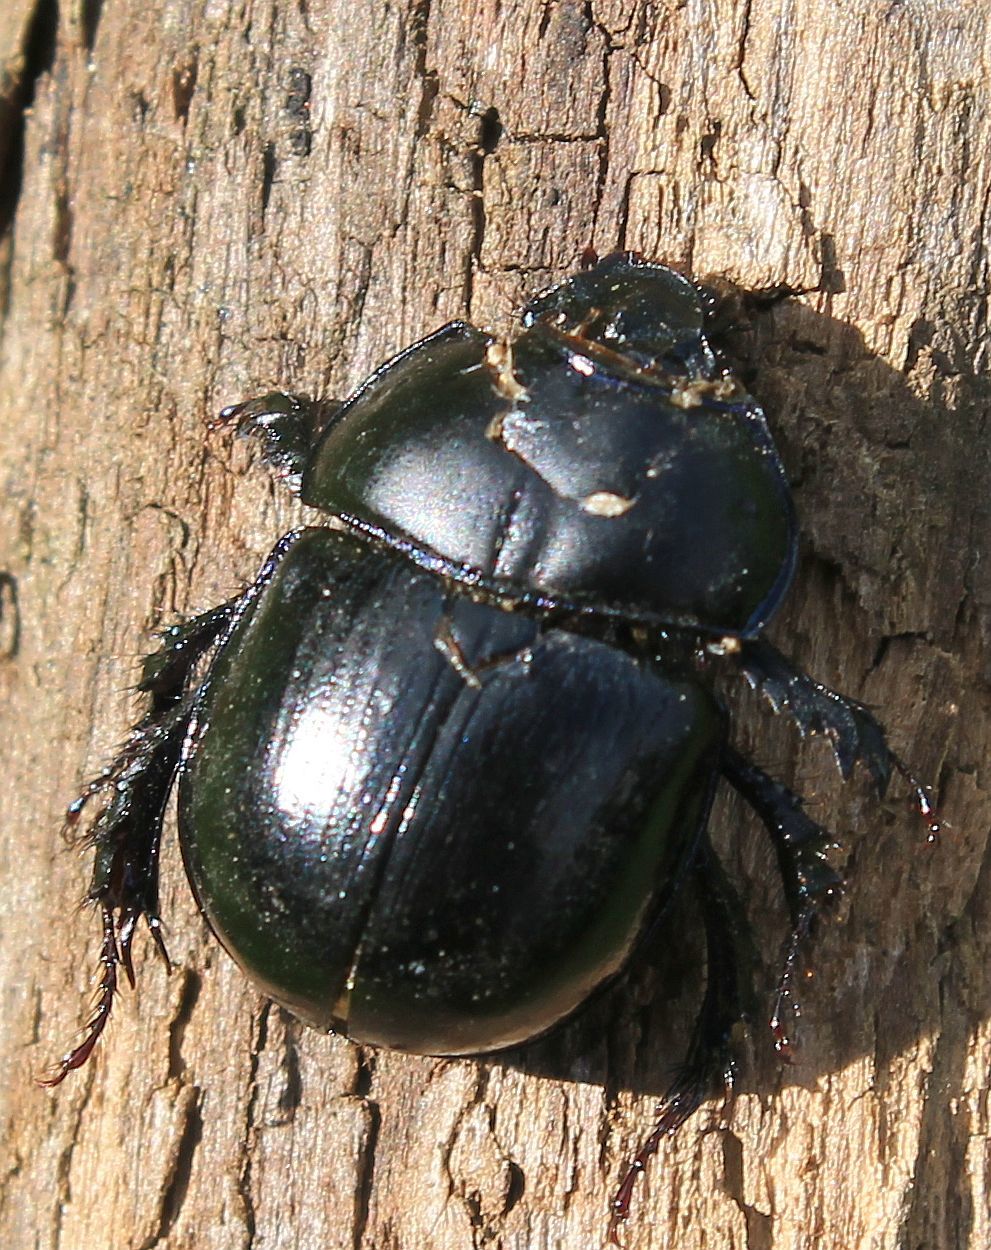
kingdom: Animalia
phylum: Arthropoda
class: Insecta
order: Coleoptera
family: Geotrupidae
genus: Anoplotrupes
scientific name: Anoplotrupes stercorosus
